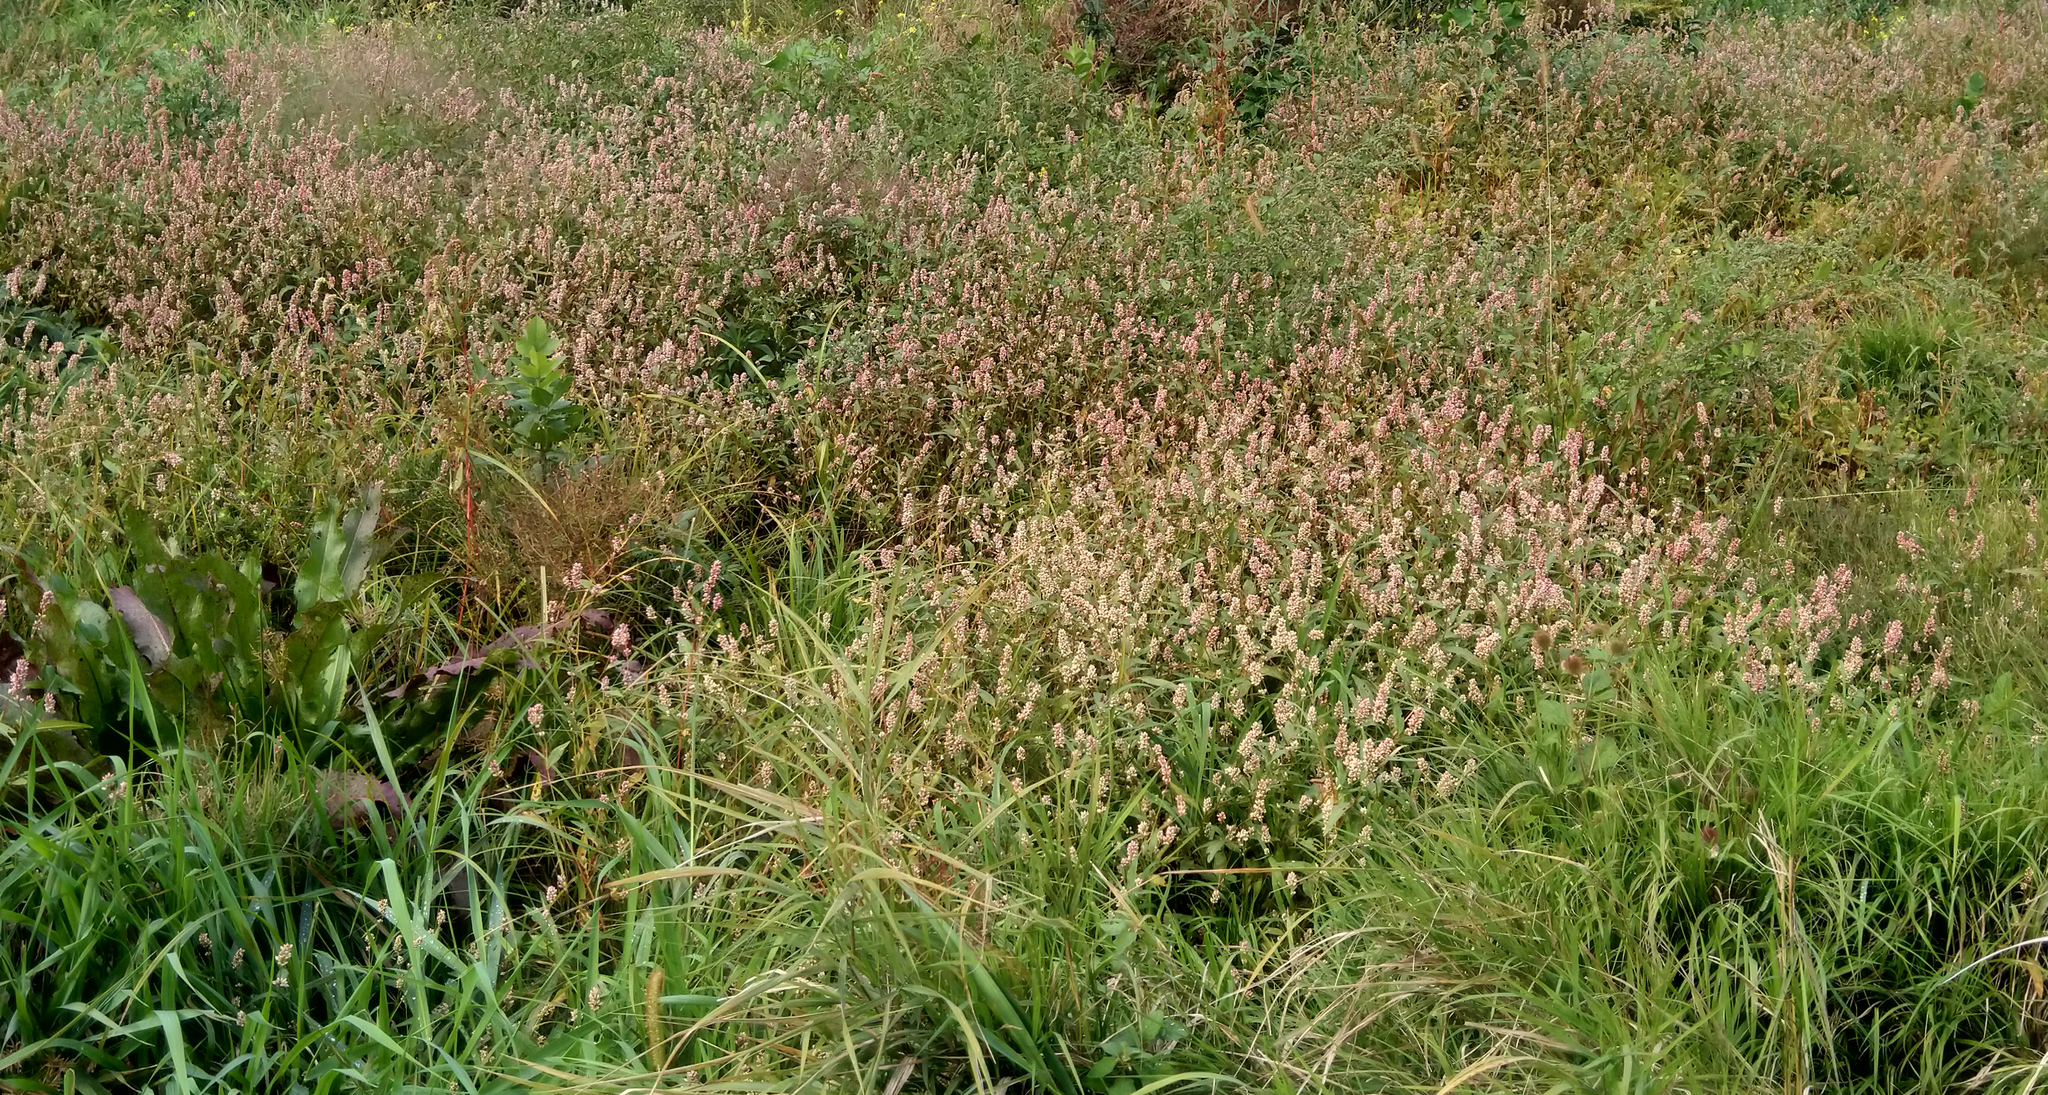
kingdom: Plantae
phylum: Tracheophyta
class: Magnoliopsida
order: Caryophyllales
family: Polygonaceae
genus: Persicaria
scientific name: Persicaria pensylvanica
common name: Pinkweed
